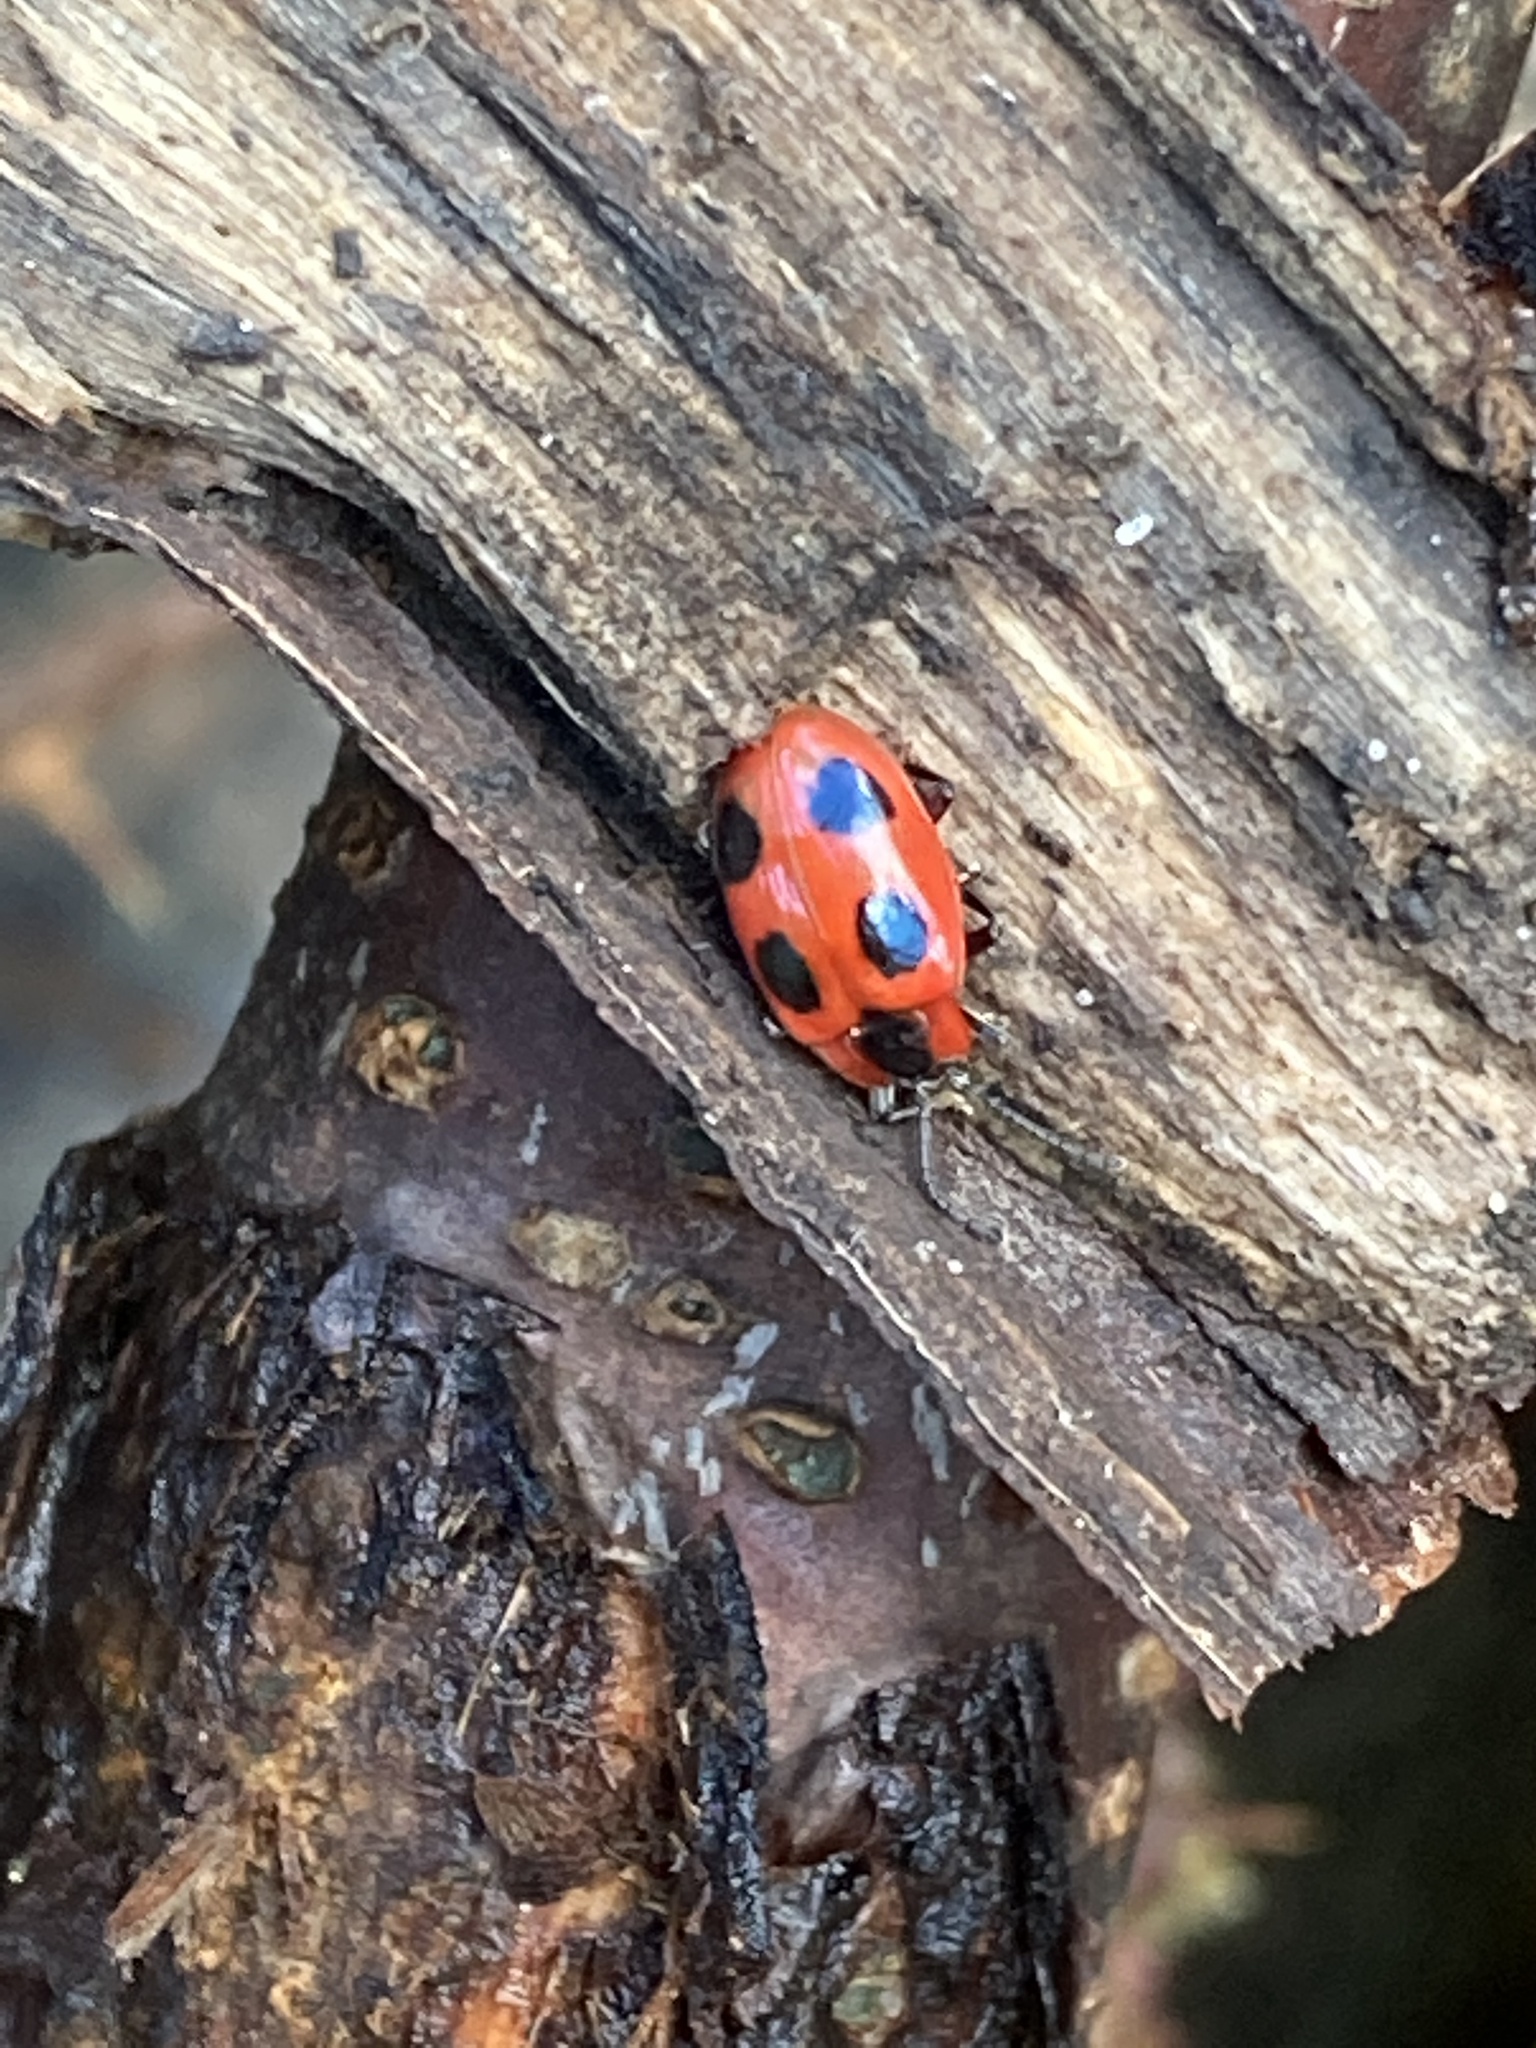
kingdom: Animalia
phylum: Arthropoda
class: Insecta
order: Coleoptera
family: Endomychidae
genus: Endomychus
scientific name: Endomychus coccineus
